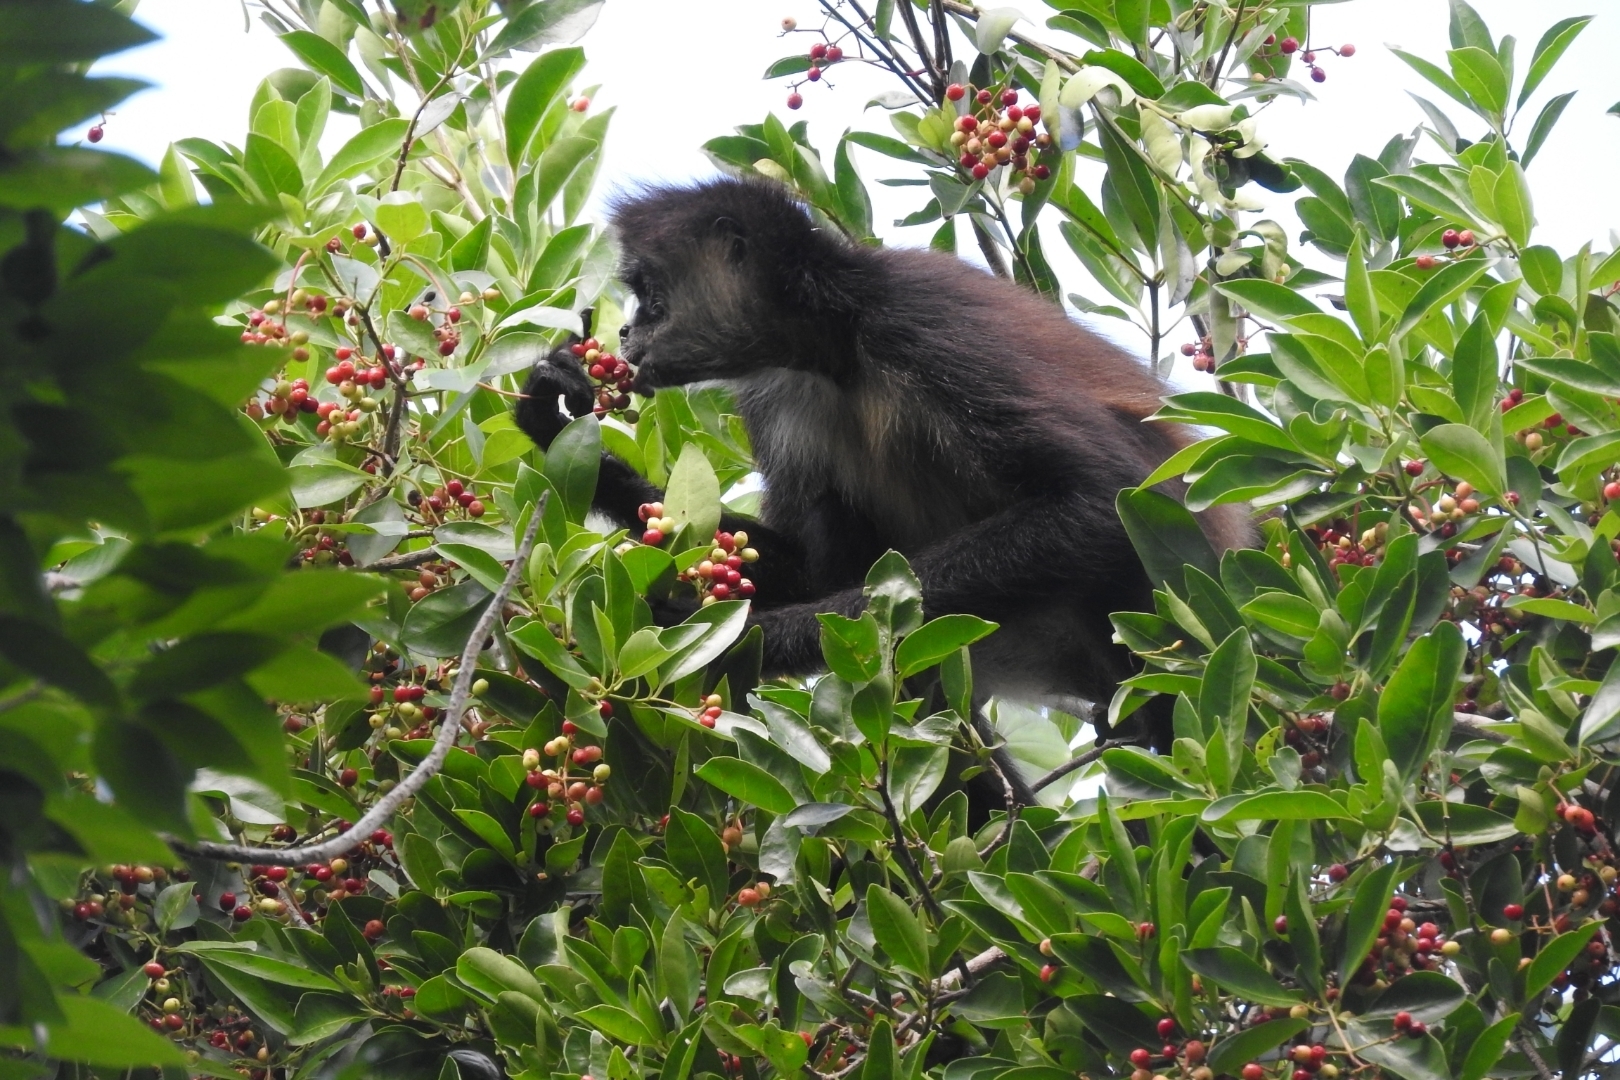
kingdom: Animalia
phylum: Chordata
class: Mammalia
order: Primates
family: Atelidae
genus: Ateles
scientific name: Ateles geoffroyi
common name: Black-handed spider monkey
